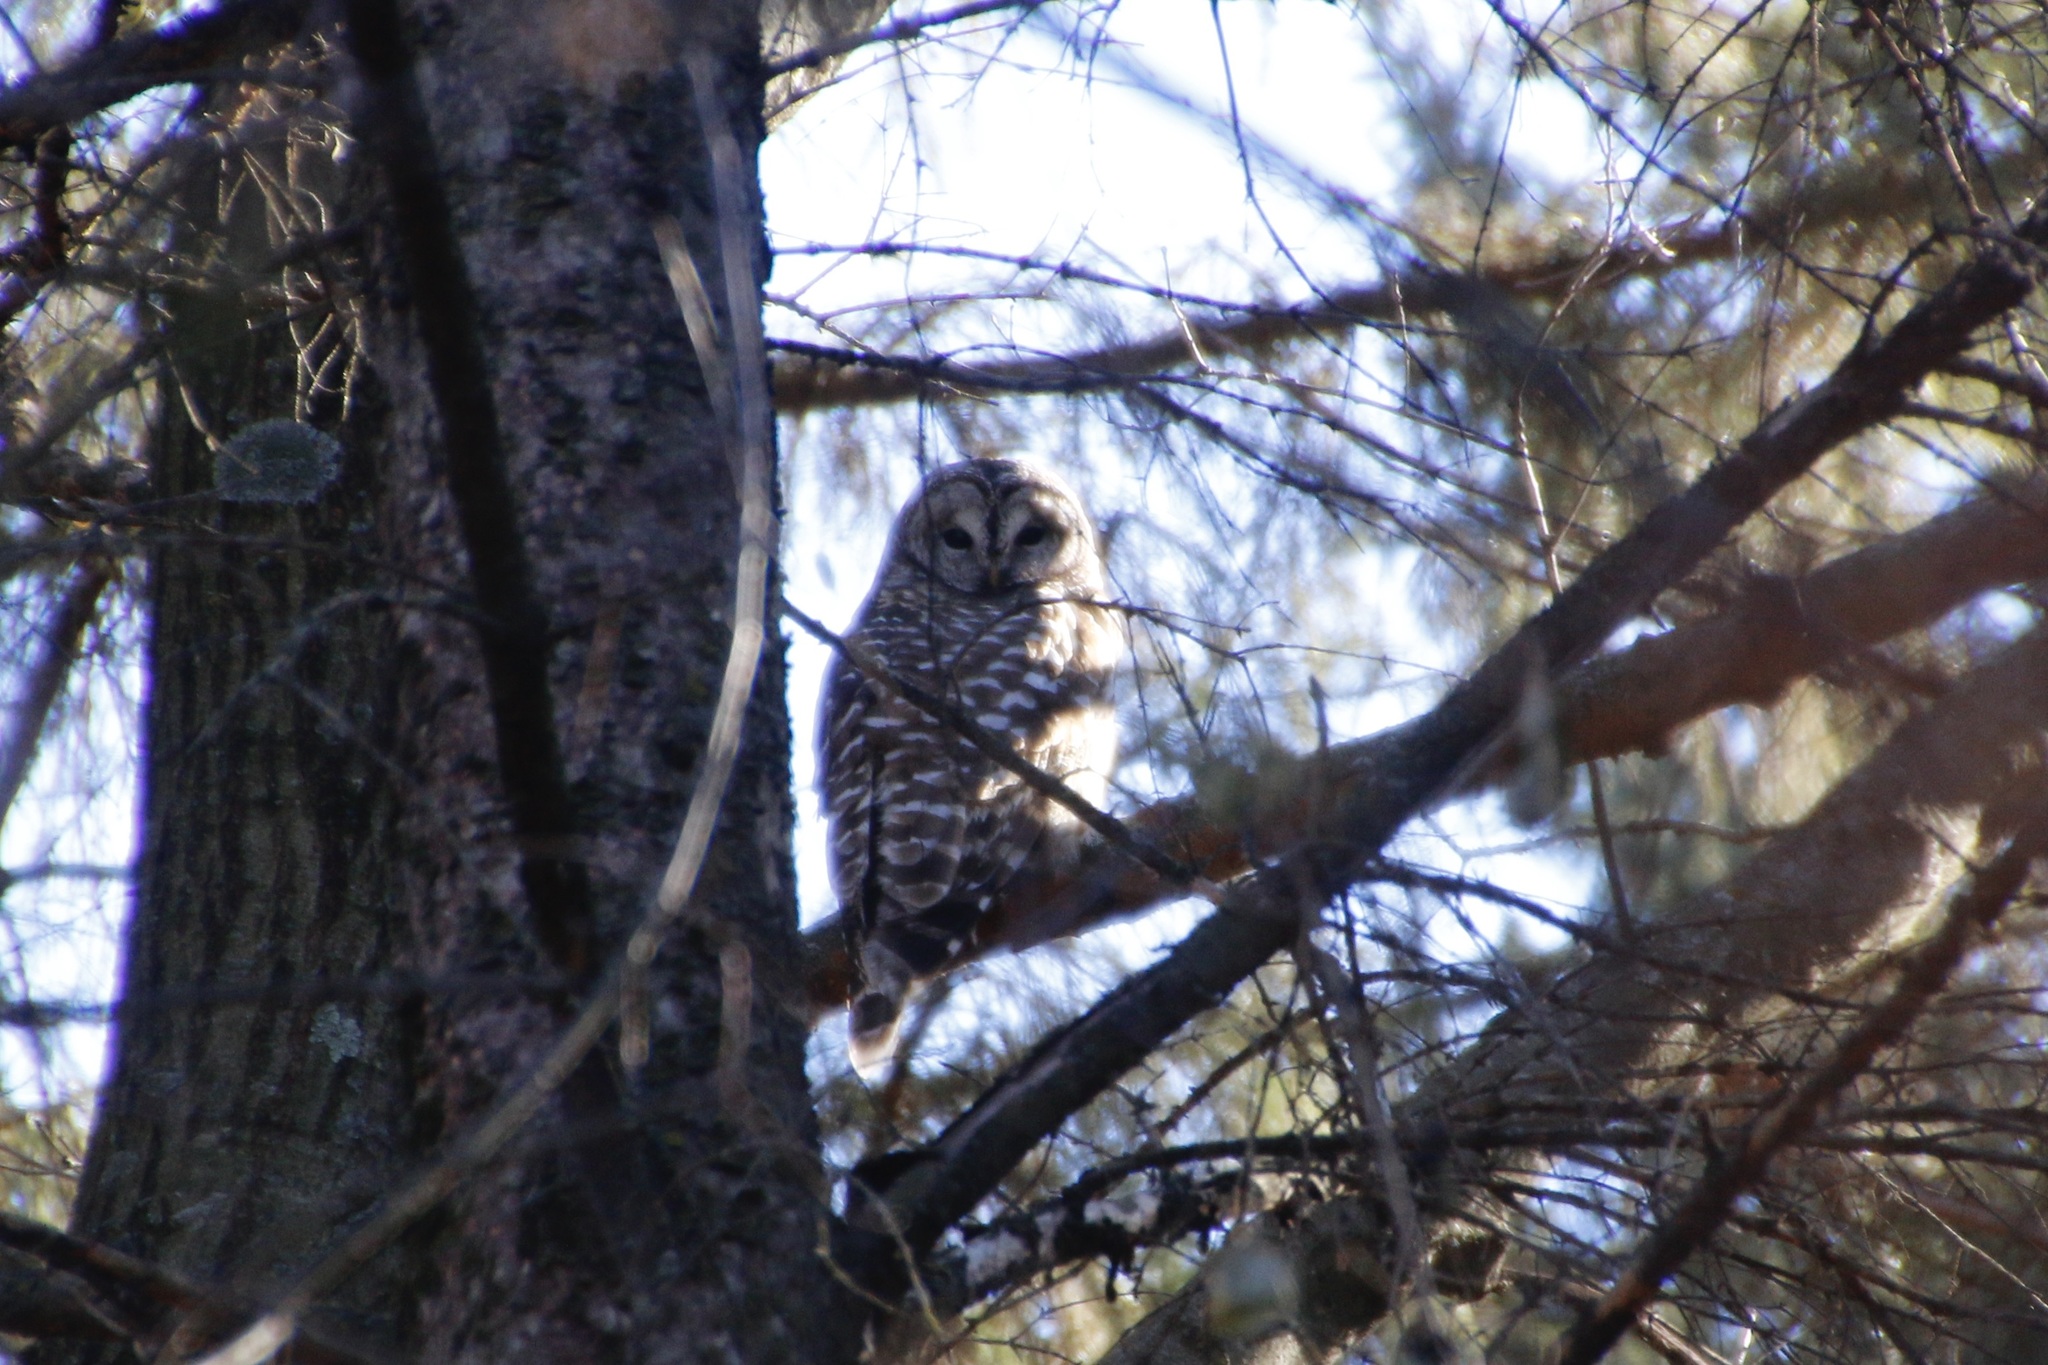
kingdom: Animalia
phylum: Chordata
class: Aves
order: Strigiformes
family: Strigidae
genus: Strix
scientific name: Strix varia
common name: Barred owl
